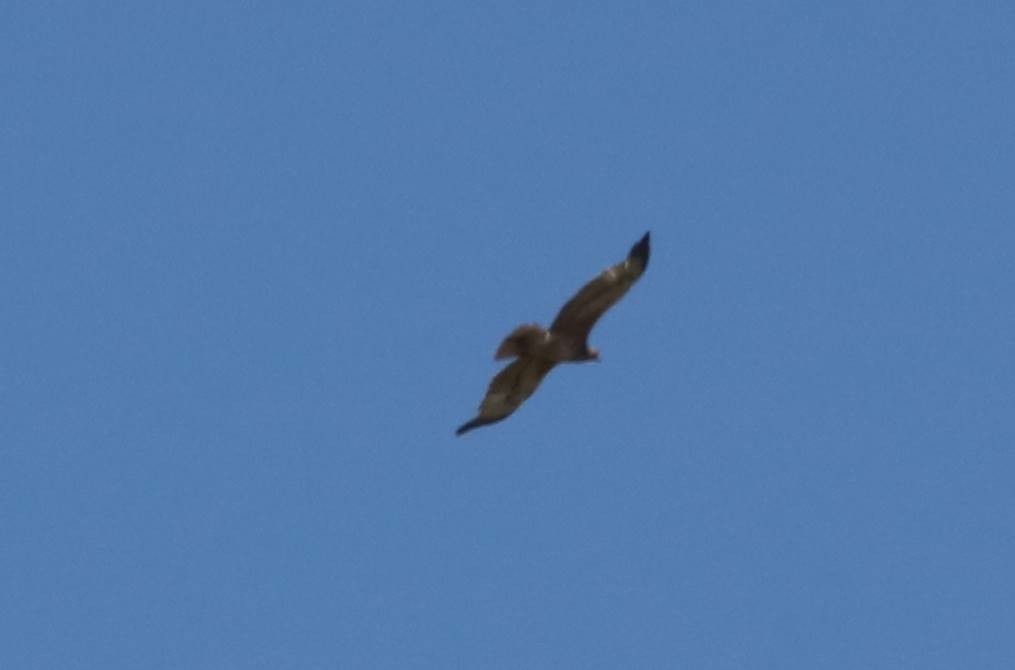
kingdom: Animalia
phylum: Chordata
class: Aves
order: Accipitriformes
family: Accipitridae
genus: Accipiter
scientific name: Accipiter nisus
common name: Eurasian sparrowhawk
